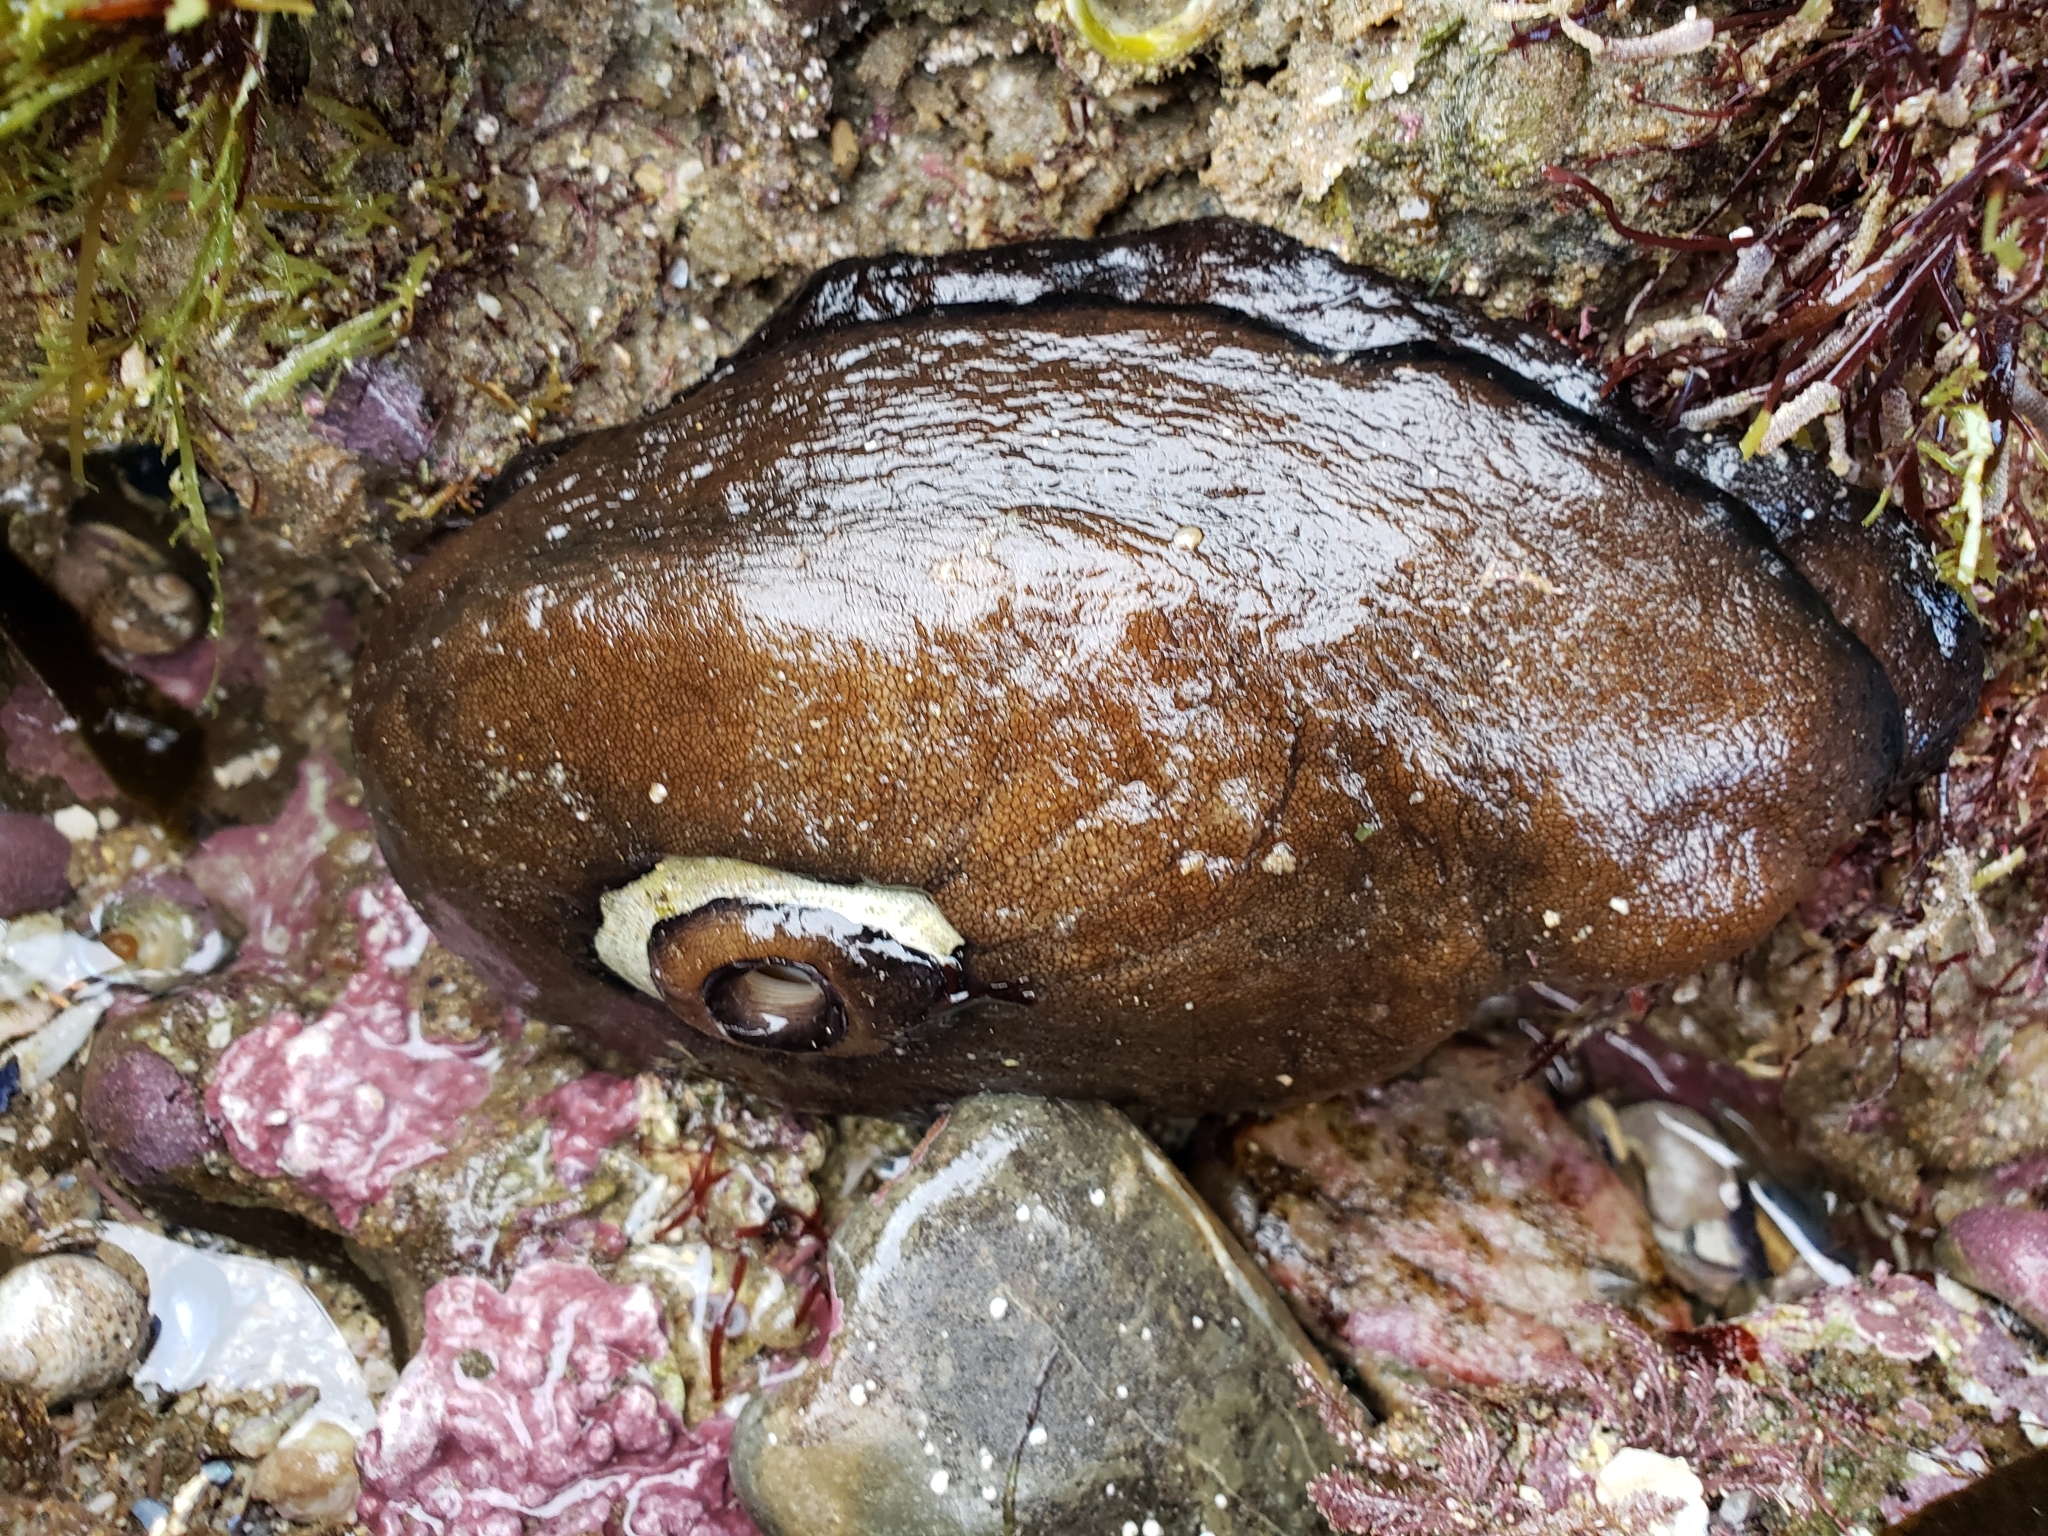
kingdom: Animalia
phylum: Mollusca
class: Gastropoda
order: Lepetellida
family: Fissurellidae
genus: Megathura
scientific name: Megathura crenulata
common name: Giant keyhole limpet
